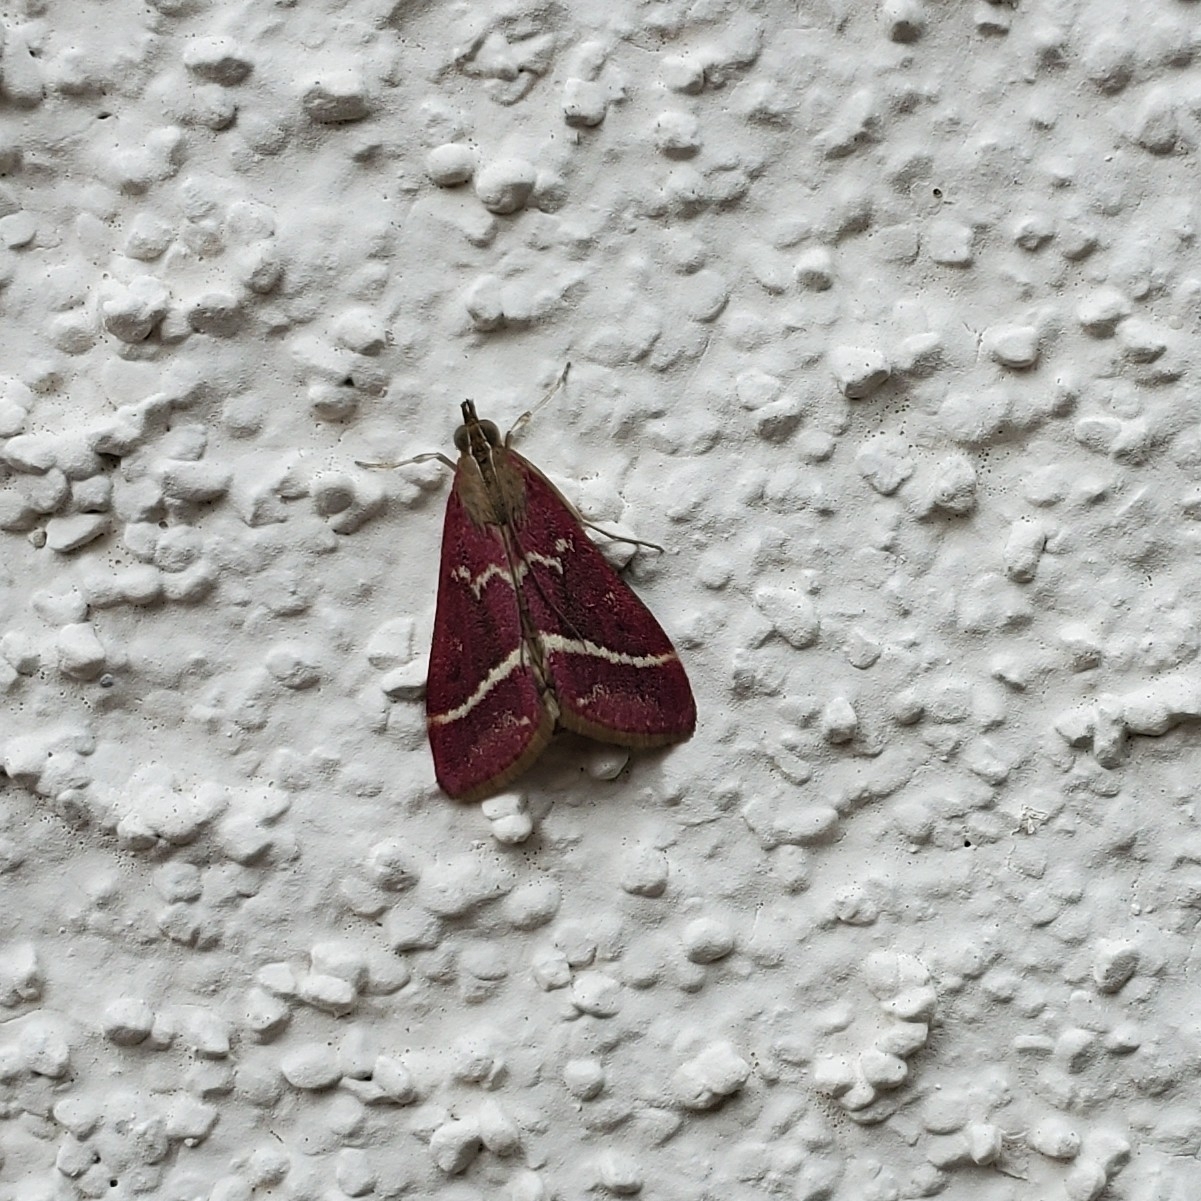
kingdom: Animalia
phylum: Arthropoda
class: Insecta
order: Lepidoptera
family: Crambidae
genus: Pyrausta
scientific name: Pyrausta volupialis
